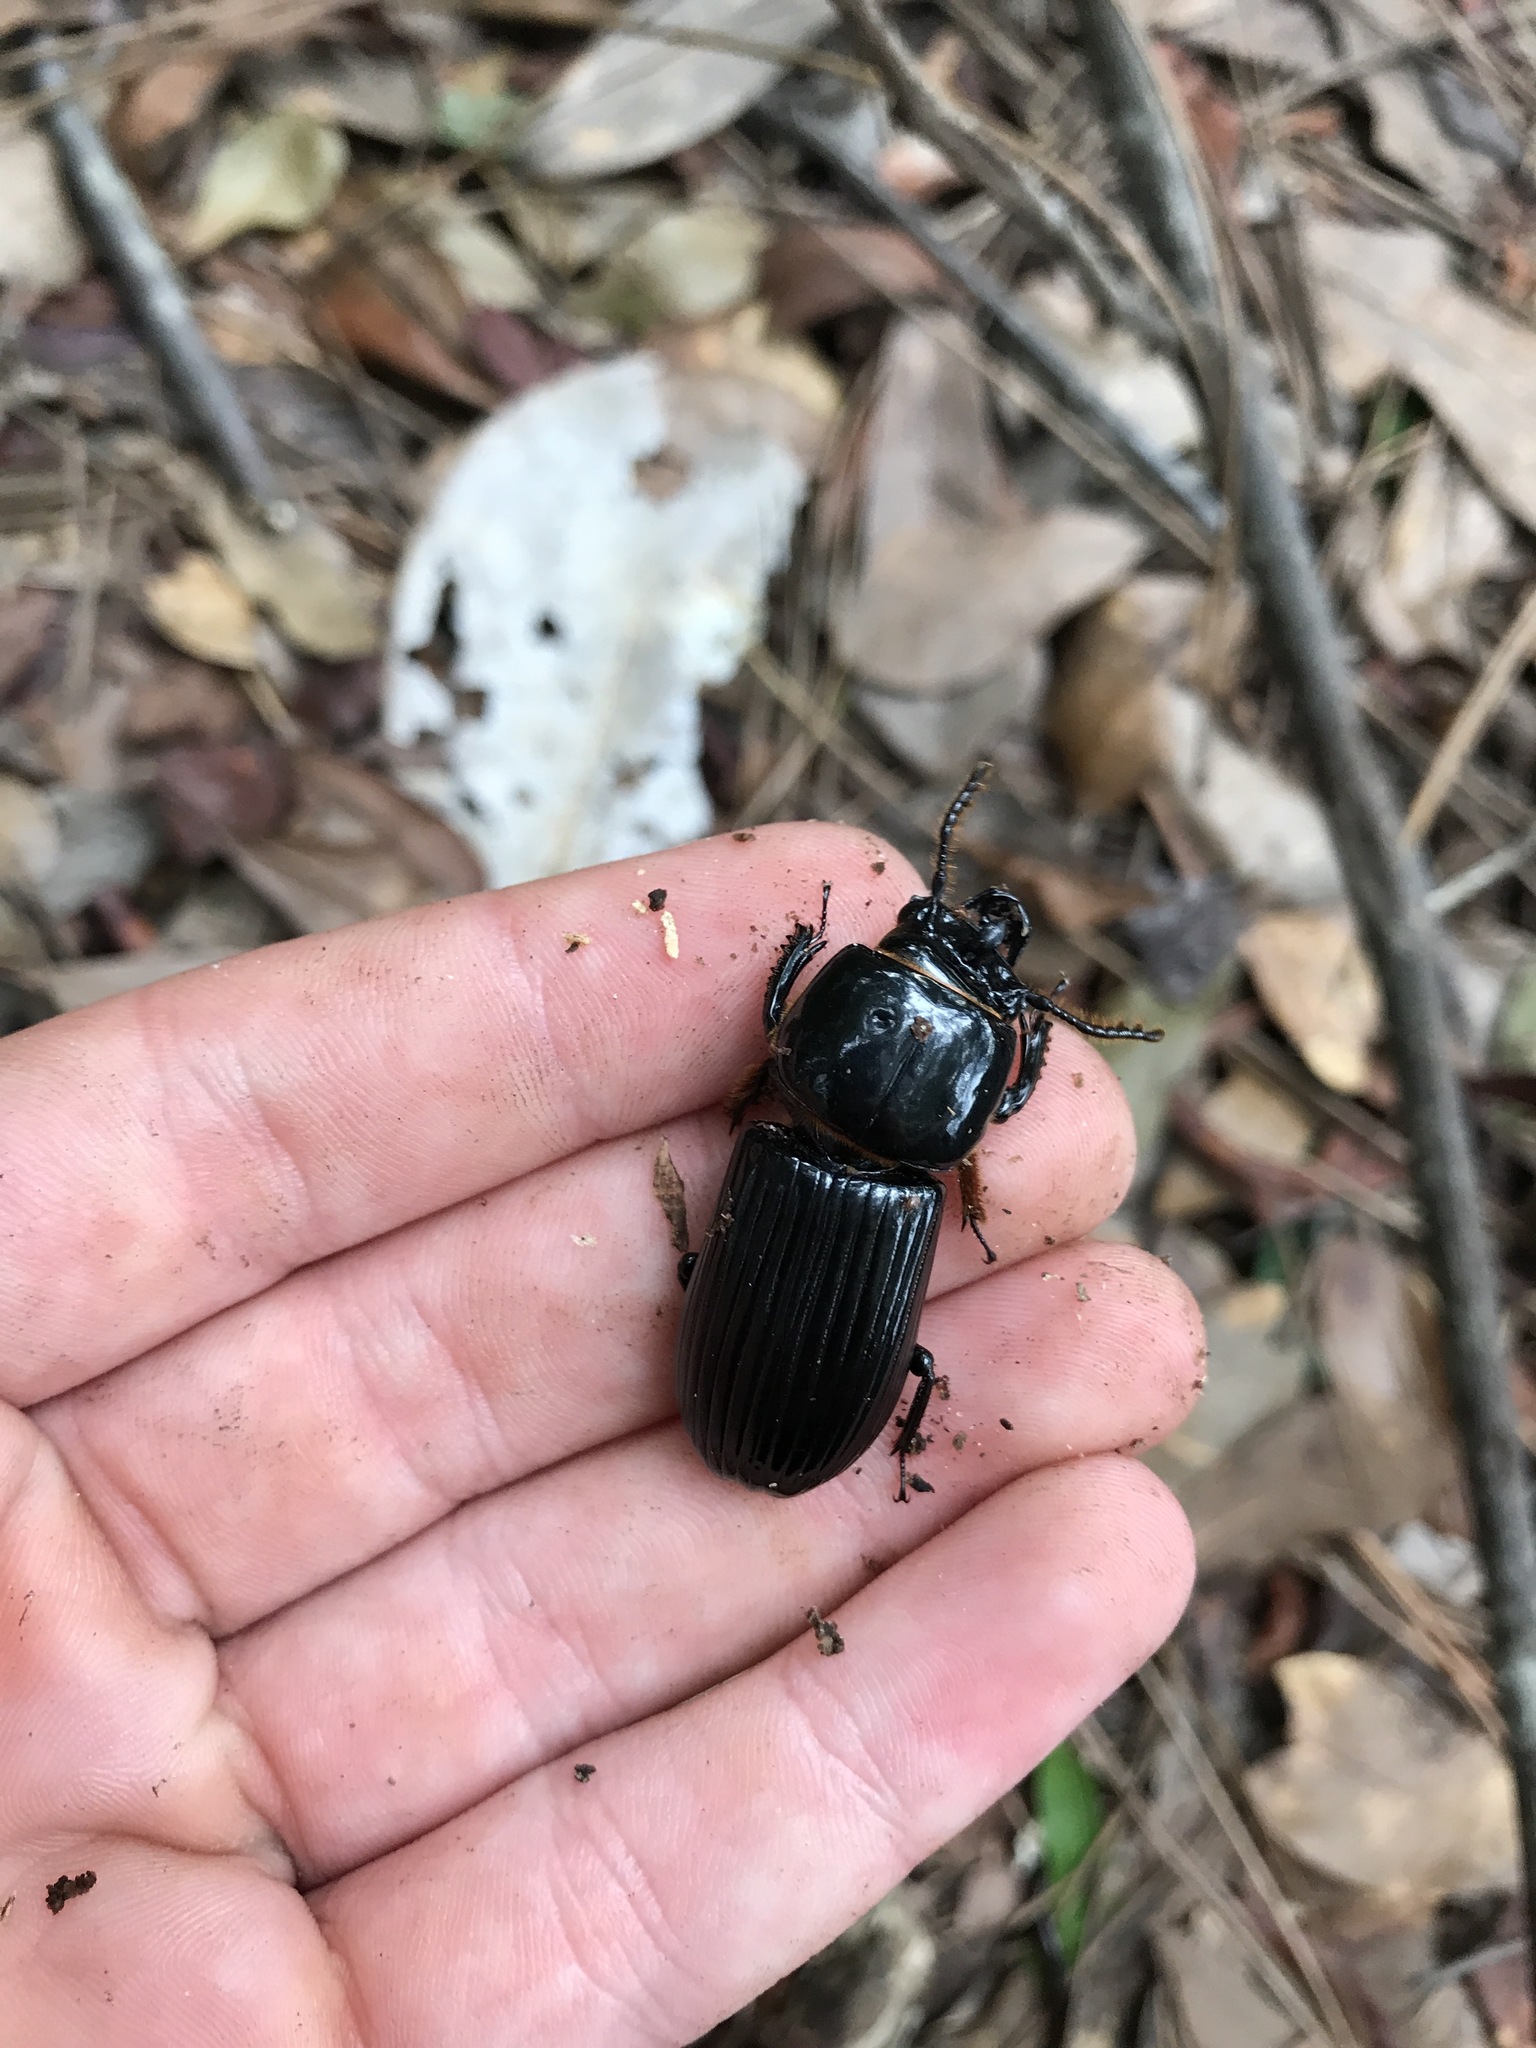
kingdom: Animalia
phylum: Arthropoda
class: Insecta
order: Coleoptera
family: Passalidae
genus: Odontotaenius
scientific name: Odontotaenius disjunctus
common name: Patent leather beetle
